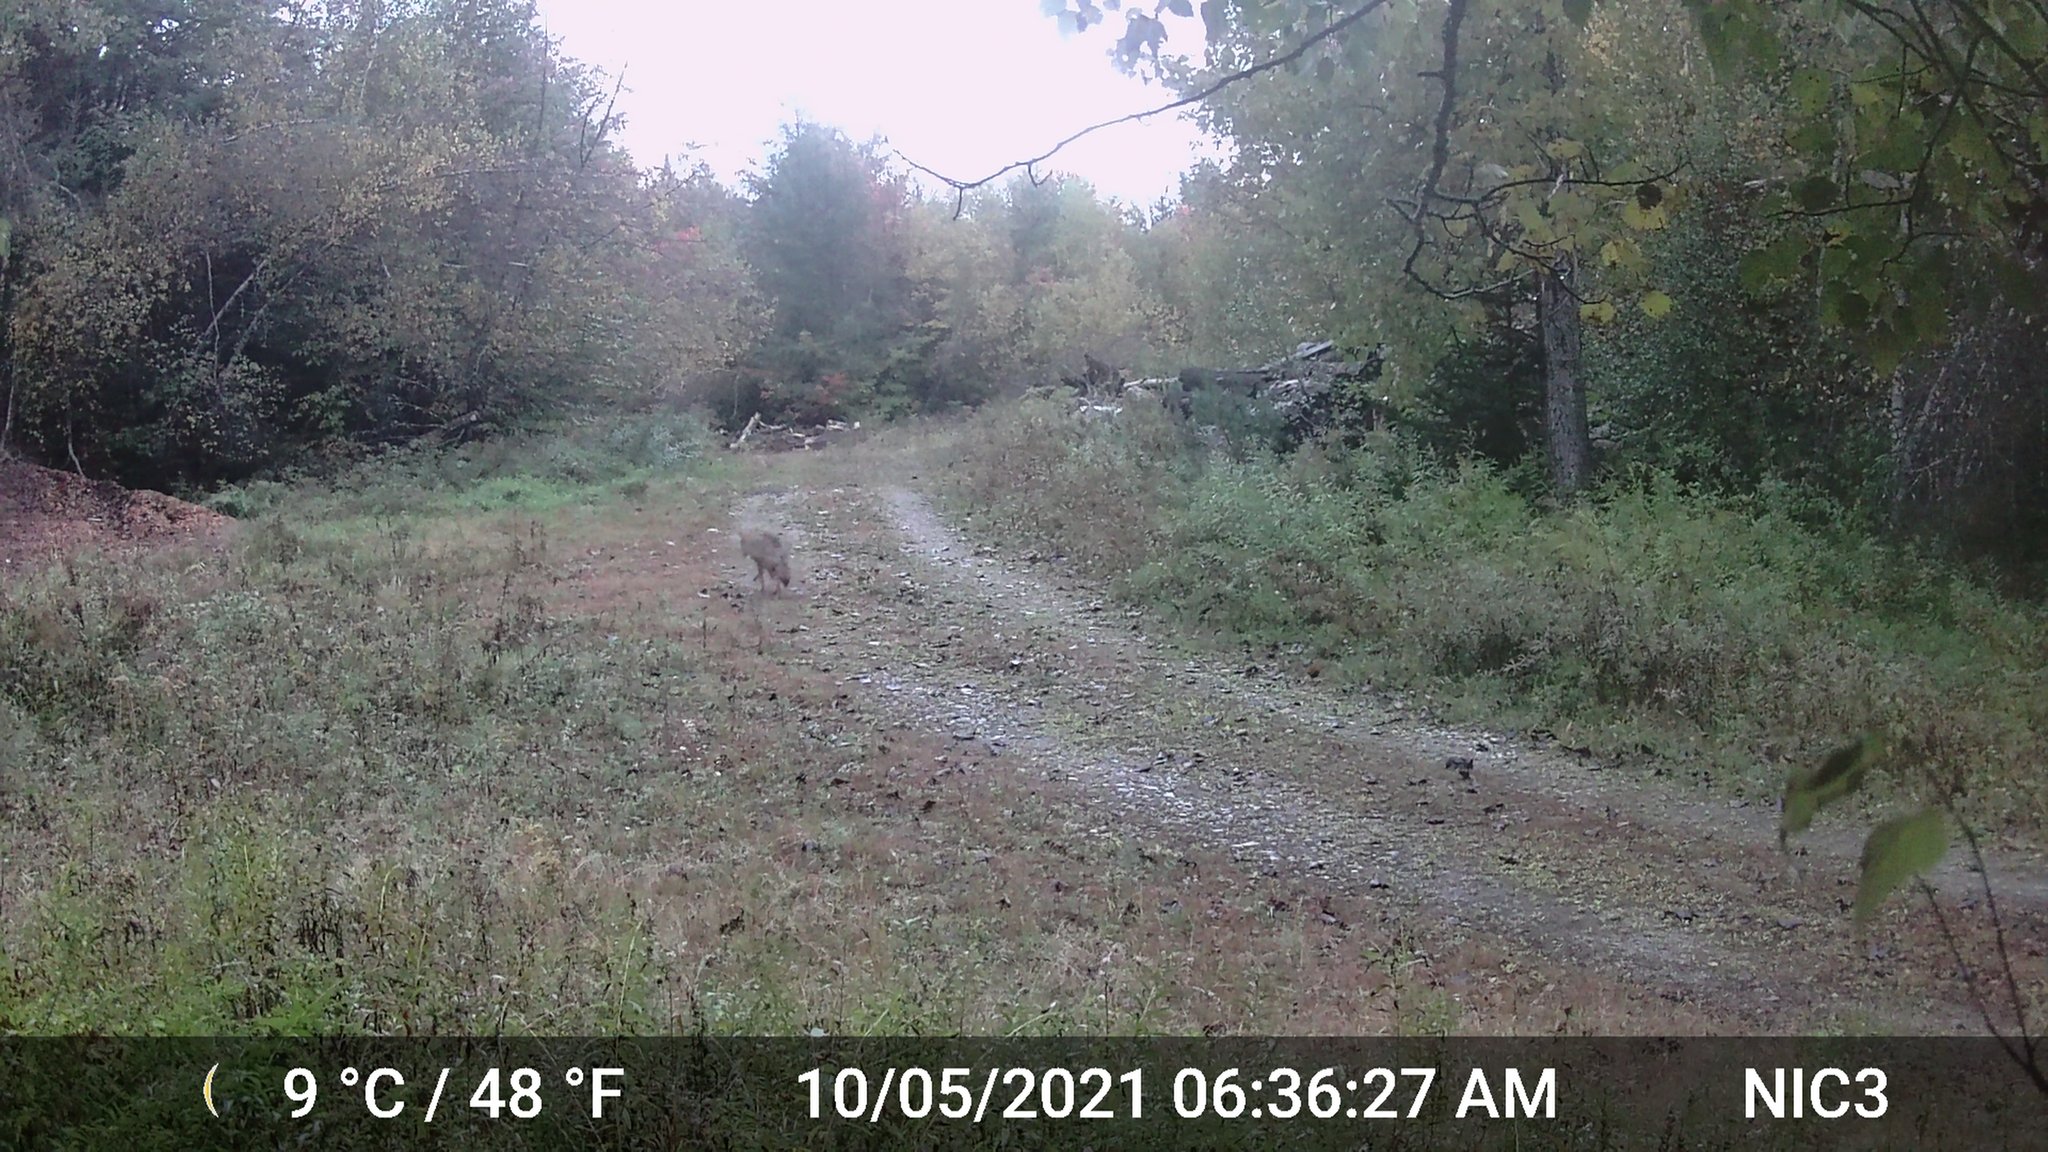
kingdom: Animalia
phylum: Chordata
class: Mammalia
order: Carnivora
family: Canidae
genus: Canis
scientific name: Canis latrans
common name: Coyote
